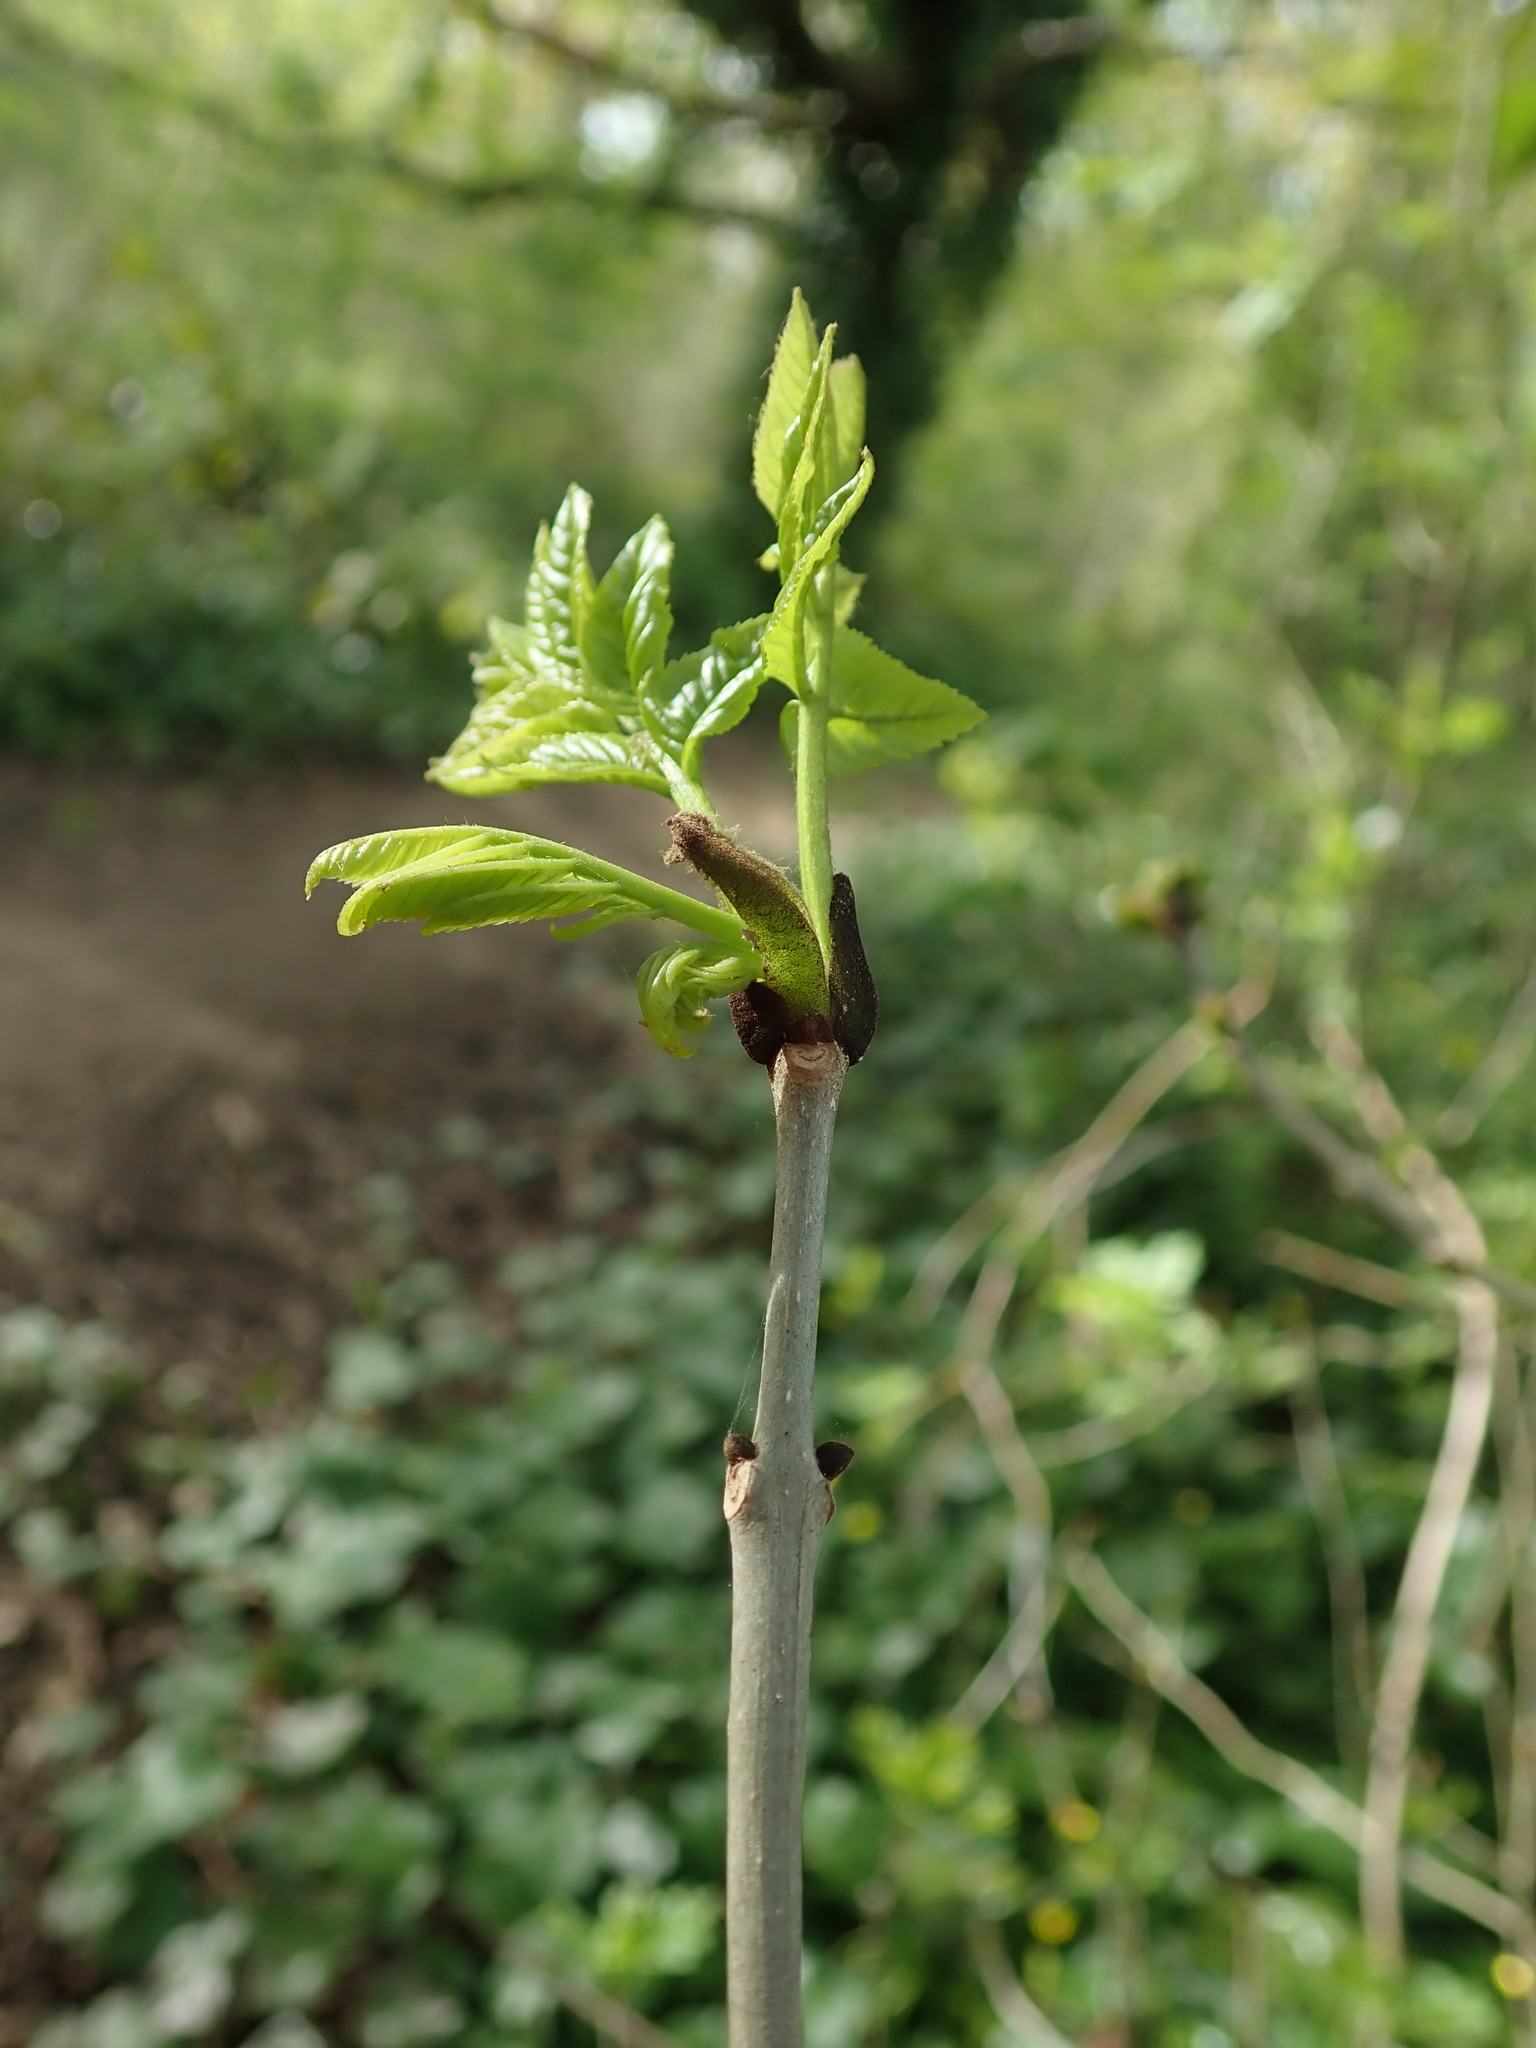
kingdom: Plantae
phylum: Tracheophyta
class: Magnoliopsida
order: Lamiales
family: Oleaceae
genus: Fraxinus
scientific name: Fraxinus excelsior
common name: European ash
